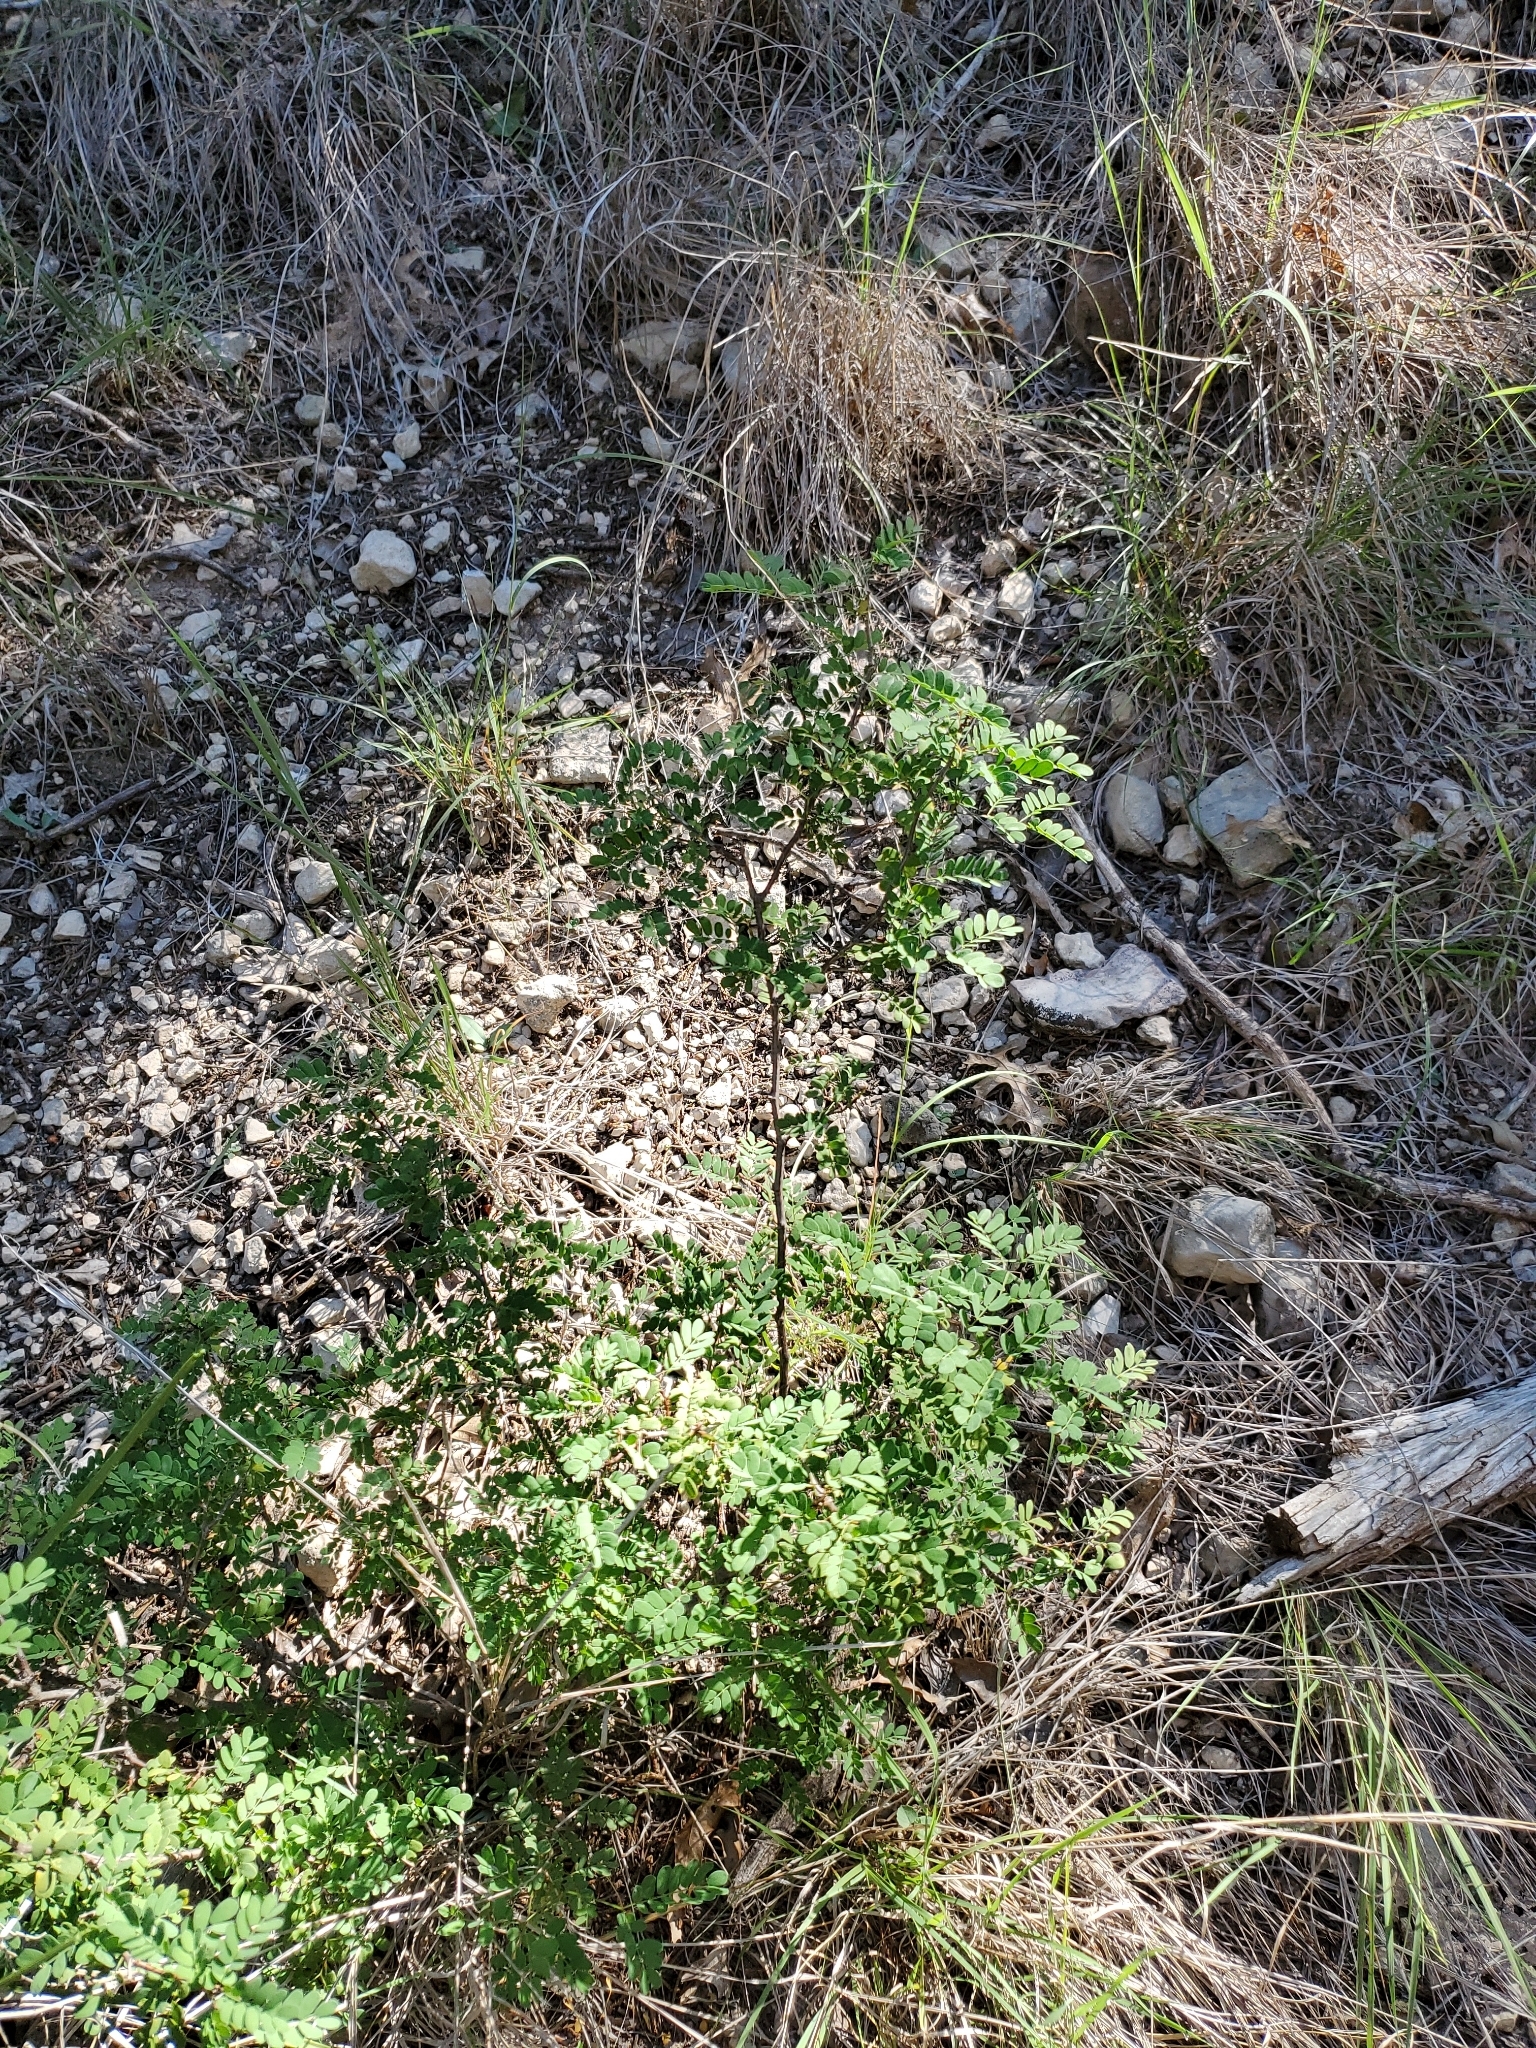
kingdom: Plantae
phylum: Tracheophyta
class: Magnoliopsida
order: Fabales
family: Fabaceae
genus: Senegalia
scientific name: Senegalia roemeriana
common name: Roemer's acacia
